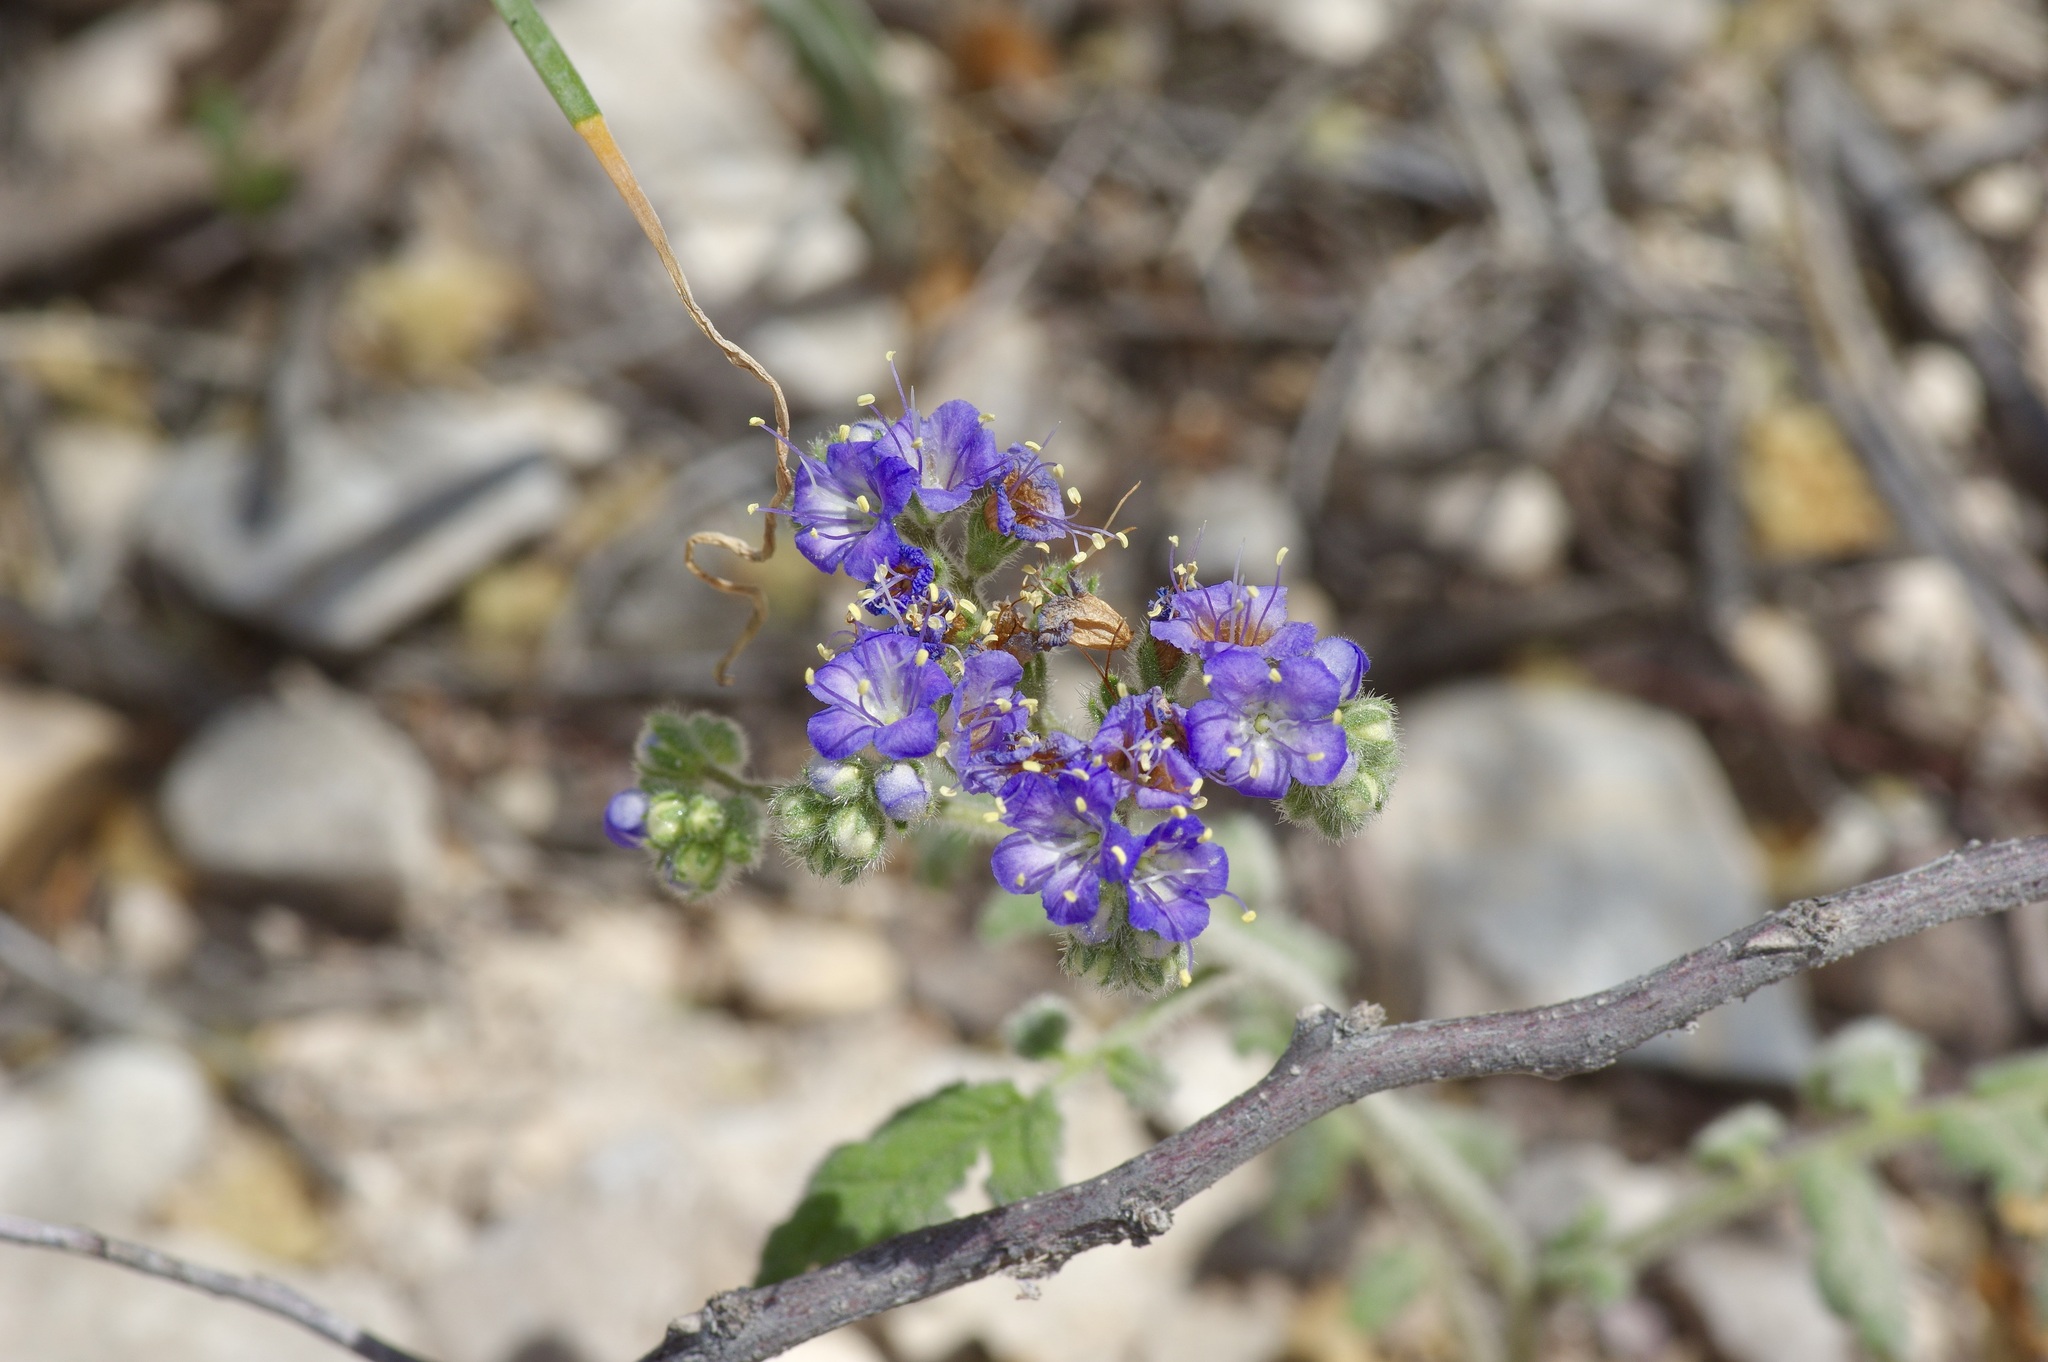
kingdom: Plantae
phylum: Tracheophyta
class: Magnoliopsida
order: Boraginales
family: Hydrophyllaceae
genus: Phacelia
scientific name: Phacelia congesta
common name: Blue curls
